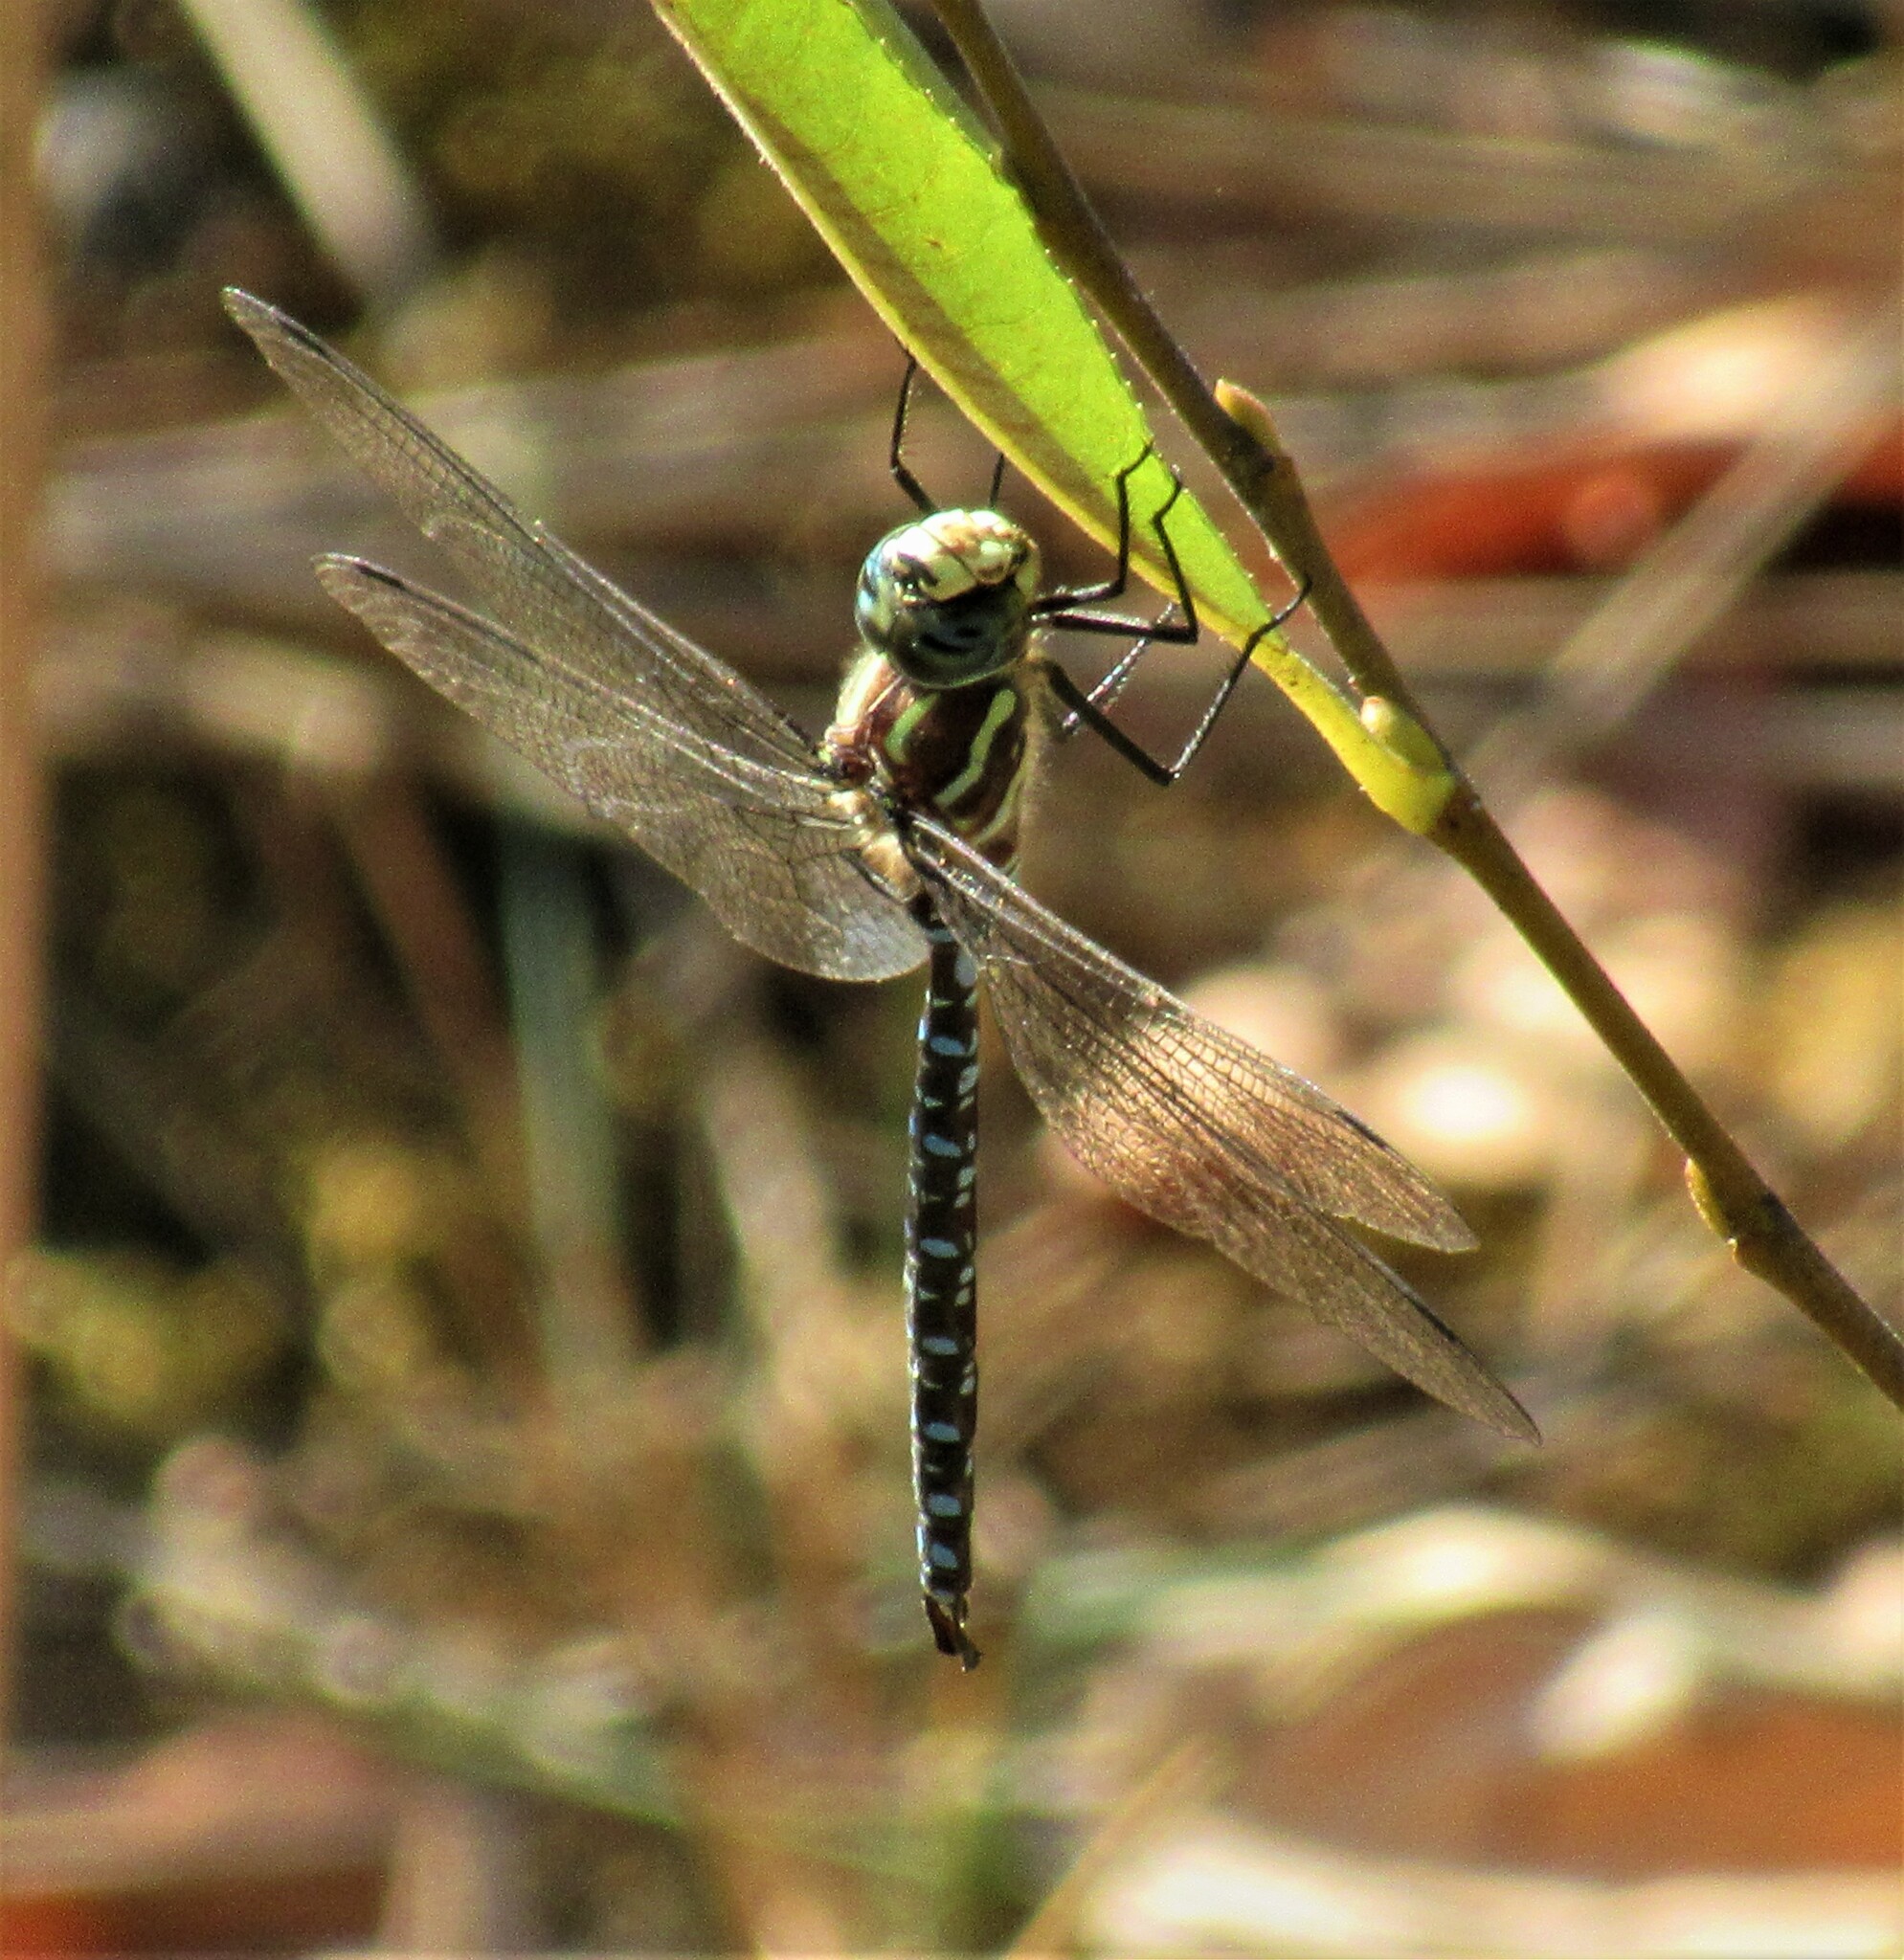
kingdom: Animalia
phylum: Arthropoda
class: Insecta
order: Odonata
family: Aeshnidae
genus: Aeshna
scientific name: Aeshna palmata
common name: Paddle-tailed darner
